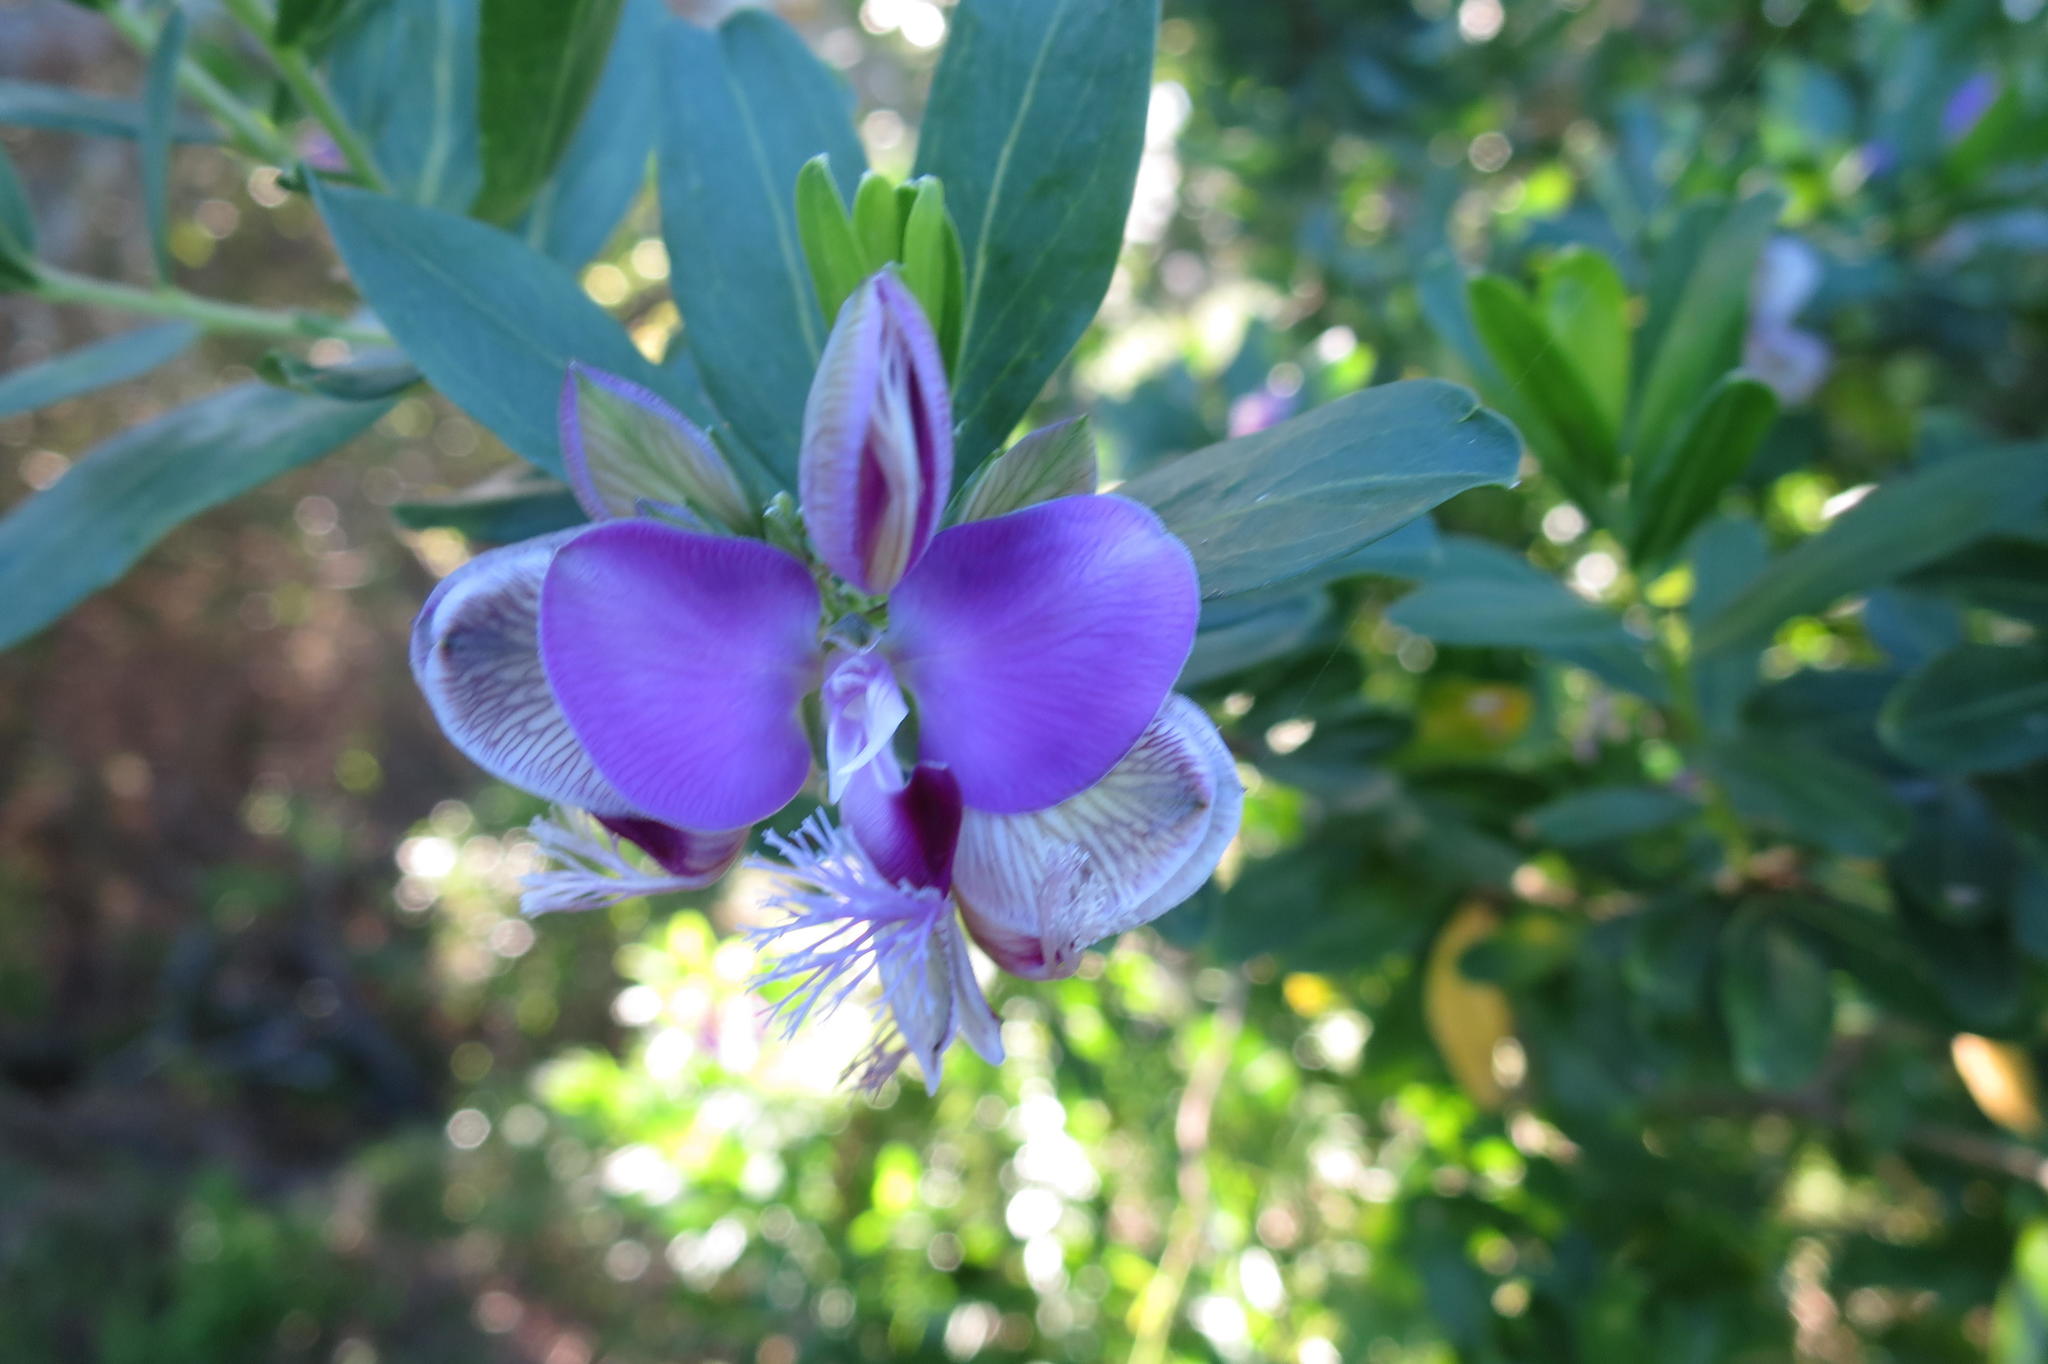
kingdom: Plantae
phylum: Tracheophyta
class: Magnoliopsida
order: Fabales
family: Polygalaceae
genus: Polygala
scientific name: Polygala myrtifolia
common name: Myrtle-leaf milkwort
